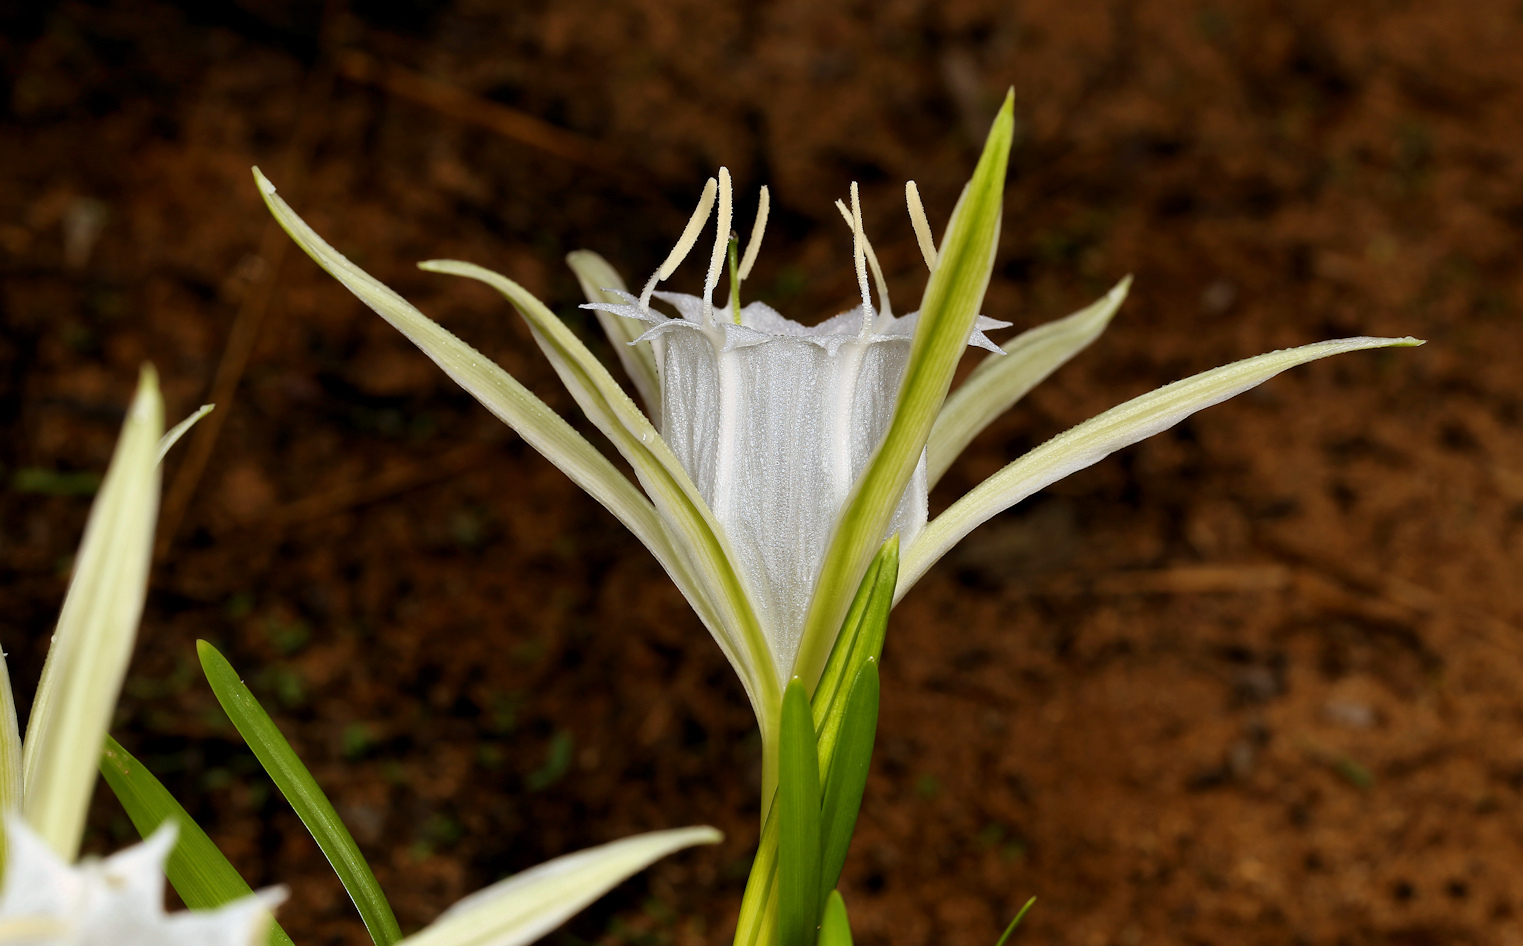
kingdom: Plantae
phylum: Tracheophyta
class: Liliopsida
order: Asparagales
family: Amaryllidaceae
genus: Pancratium
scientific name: Pancratium tenuifolium
